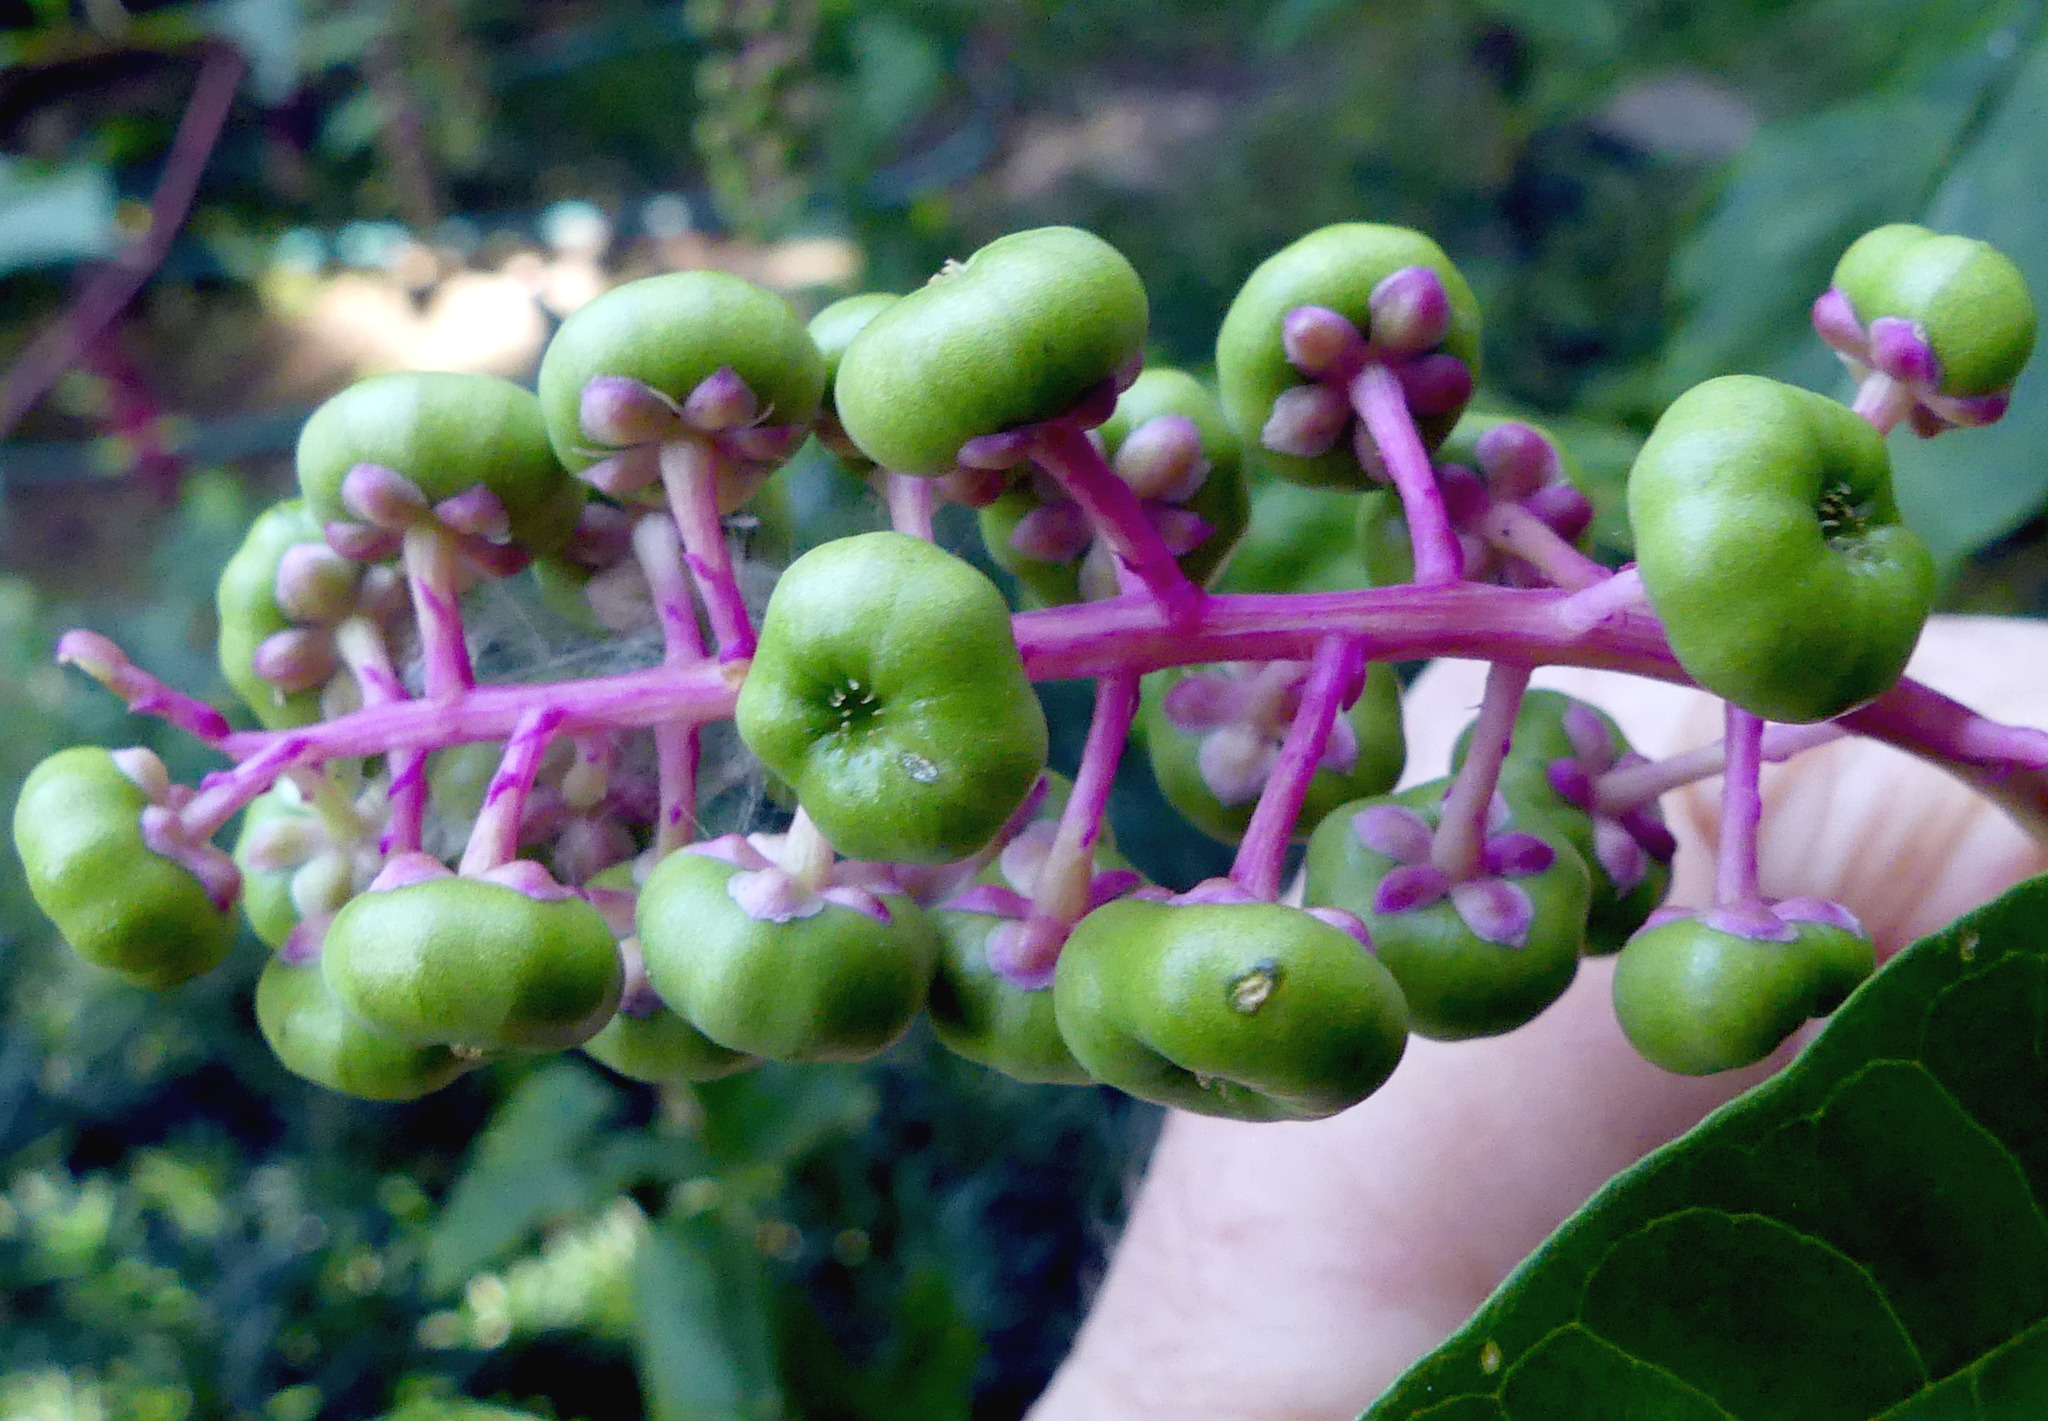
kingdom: Plantae
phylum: Tracheophyta
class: Magnoliopsida
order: Caryophyllales
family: Phytolaccaceae
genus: Phytolacca
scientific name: Phytolacca americana
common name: American pokeweed
